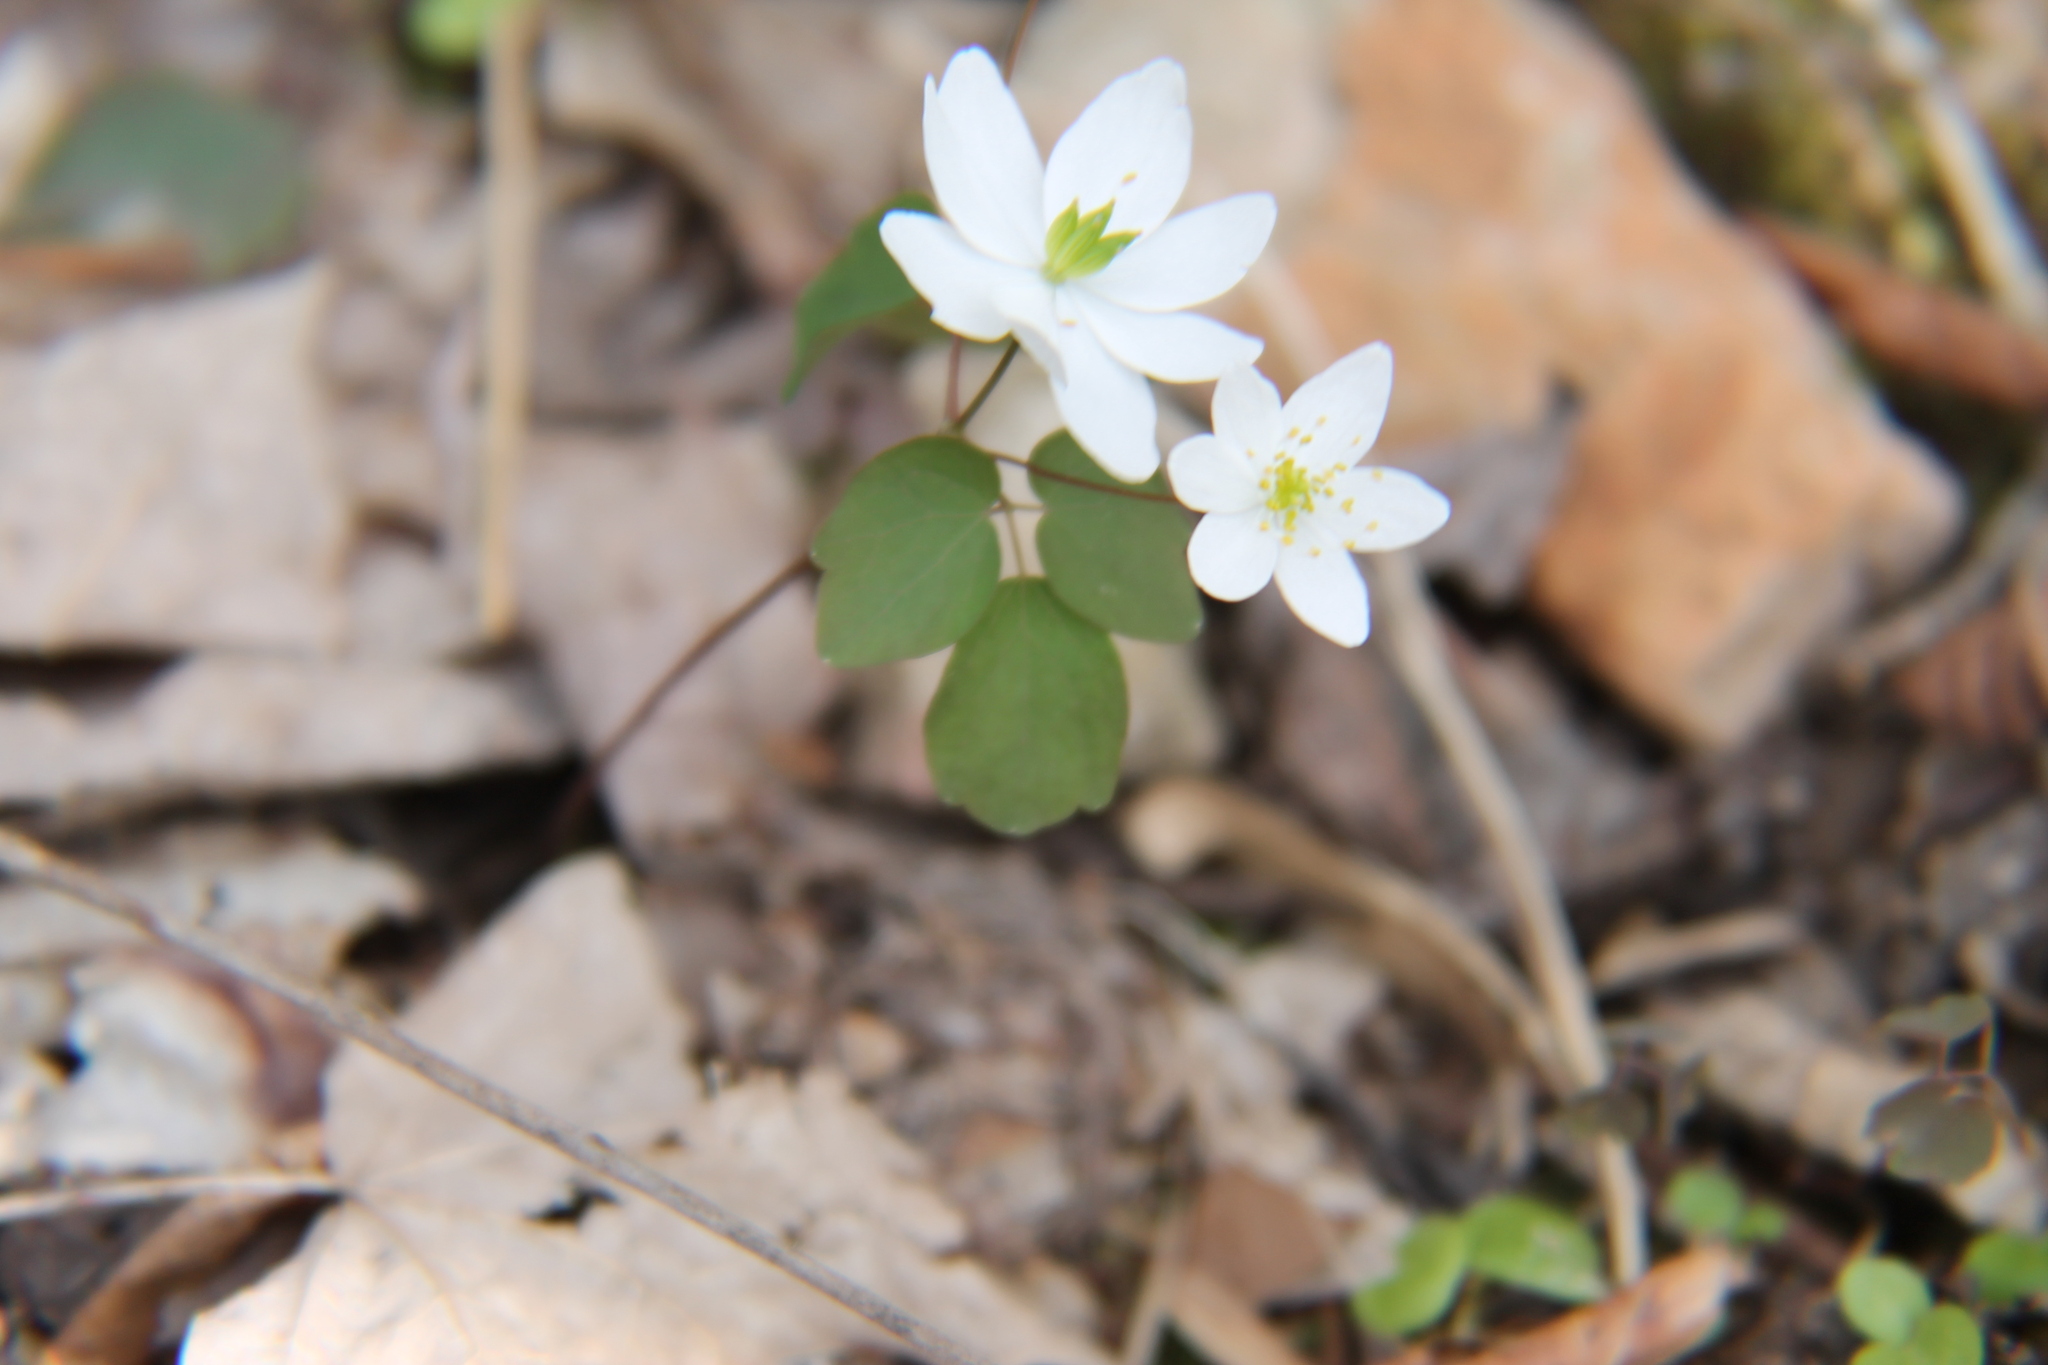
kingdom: Plantae
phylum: Tracheophyta
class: Magnoliopsida
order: Ranunculales
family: Ranunculaceae
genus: Thalictrum
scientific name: Thalictrum thalictroides
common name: Rue-anemone
